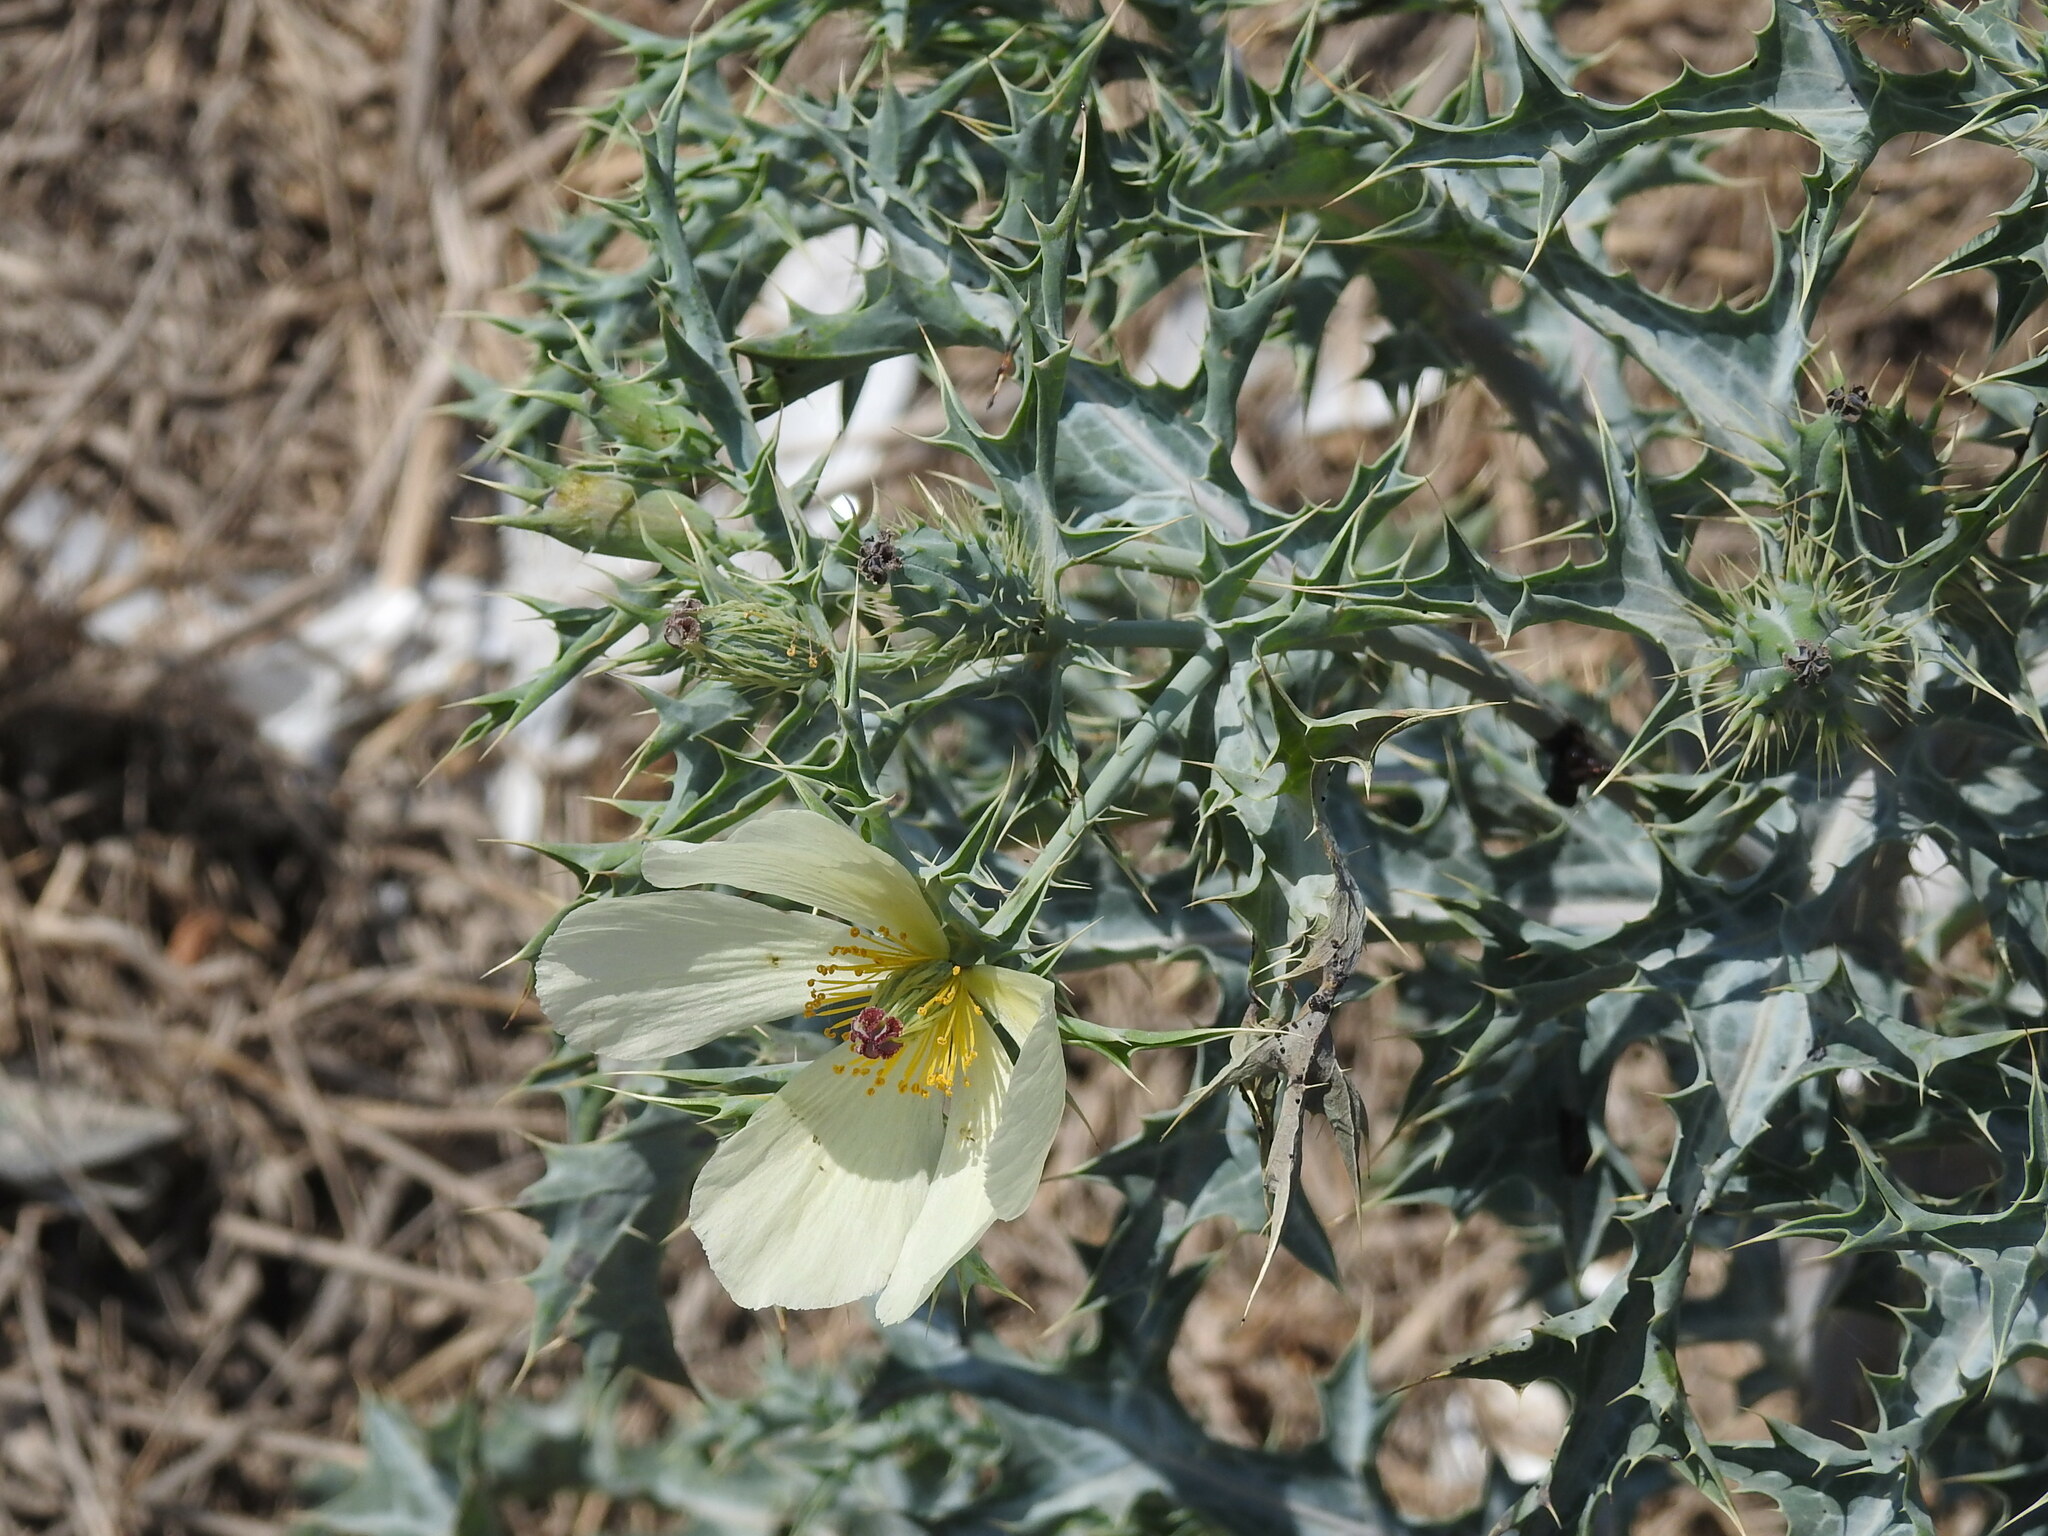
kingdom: Plantae
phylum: Tracheophyta
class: Magnoliopsida
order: Ranunculales
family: Papaveraceae
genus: Argemone
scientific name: Argemone subfusiformis
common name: American-poppy
